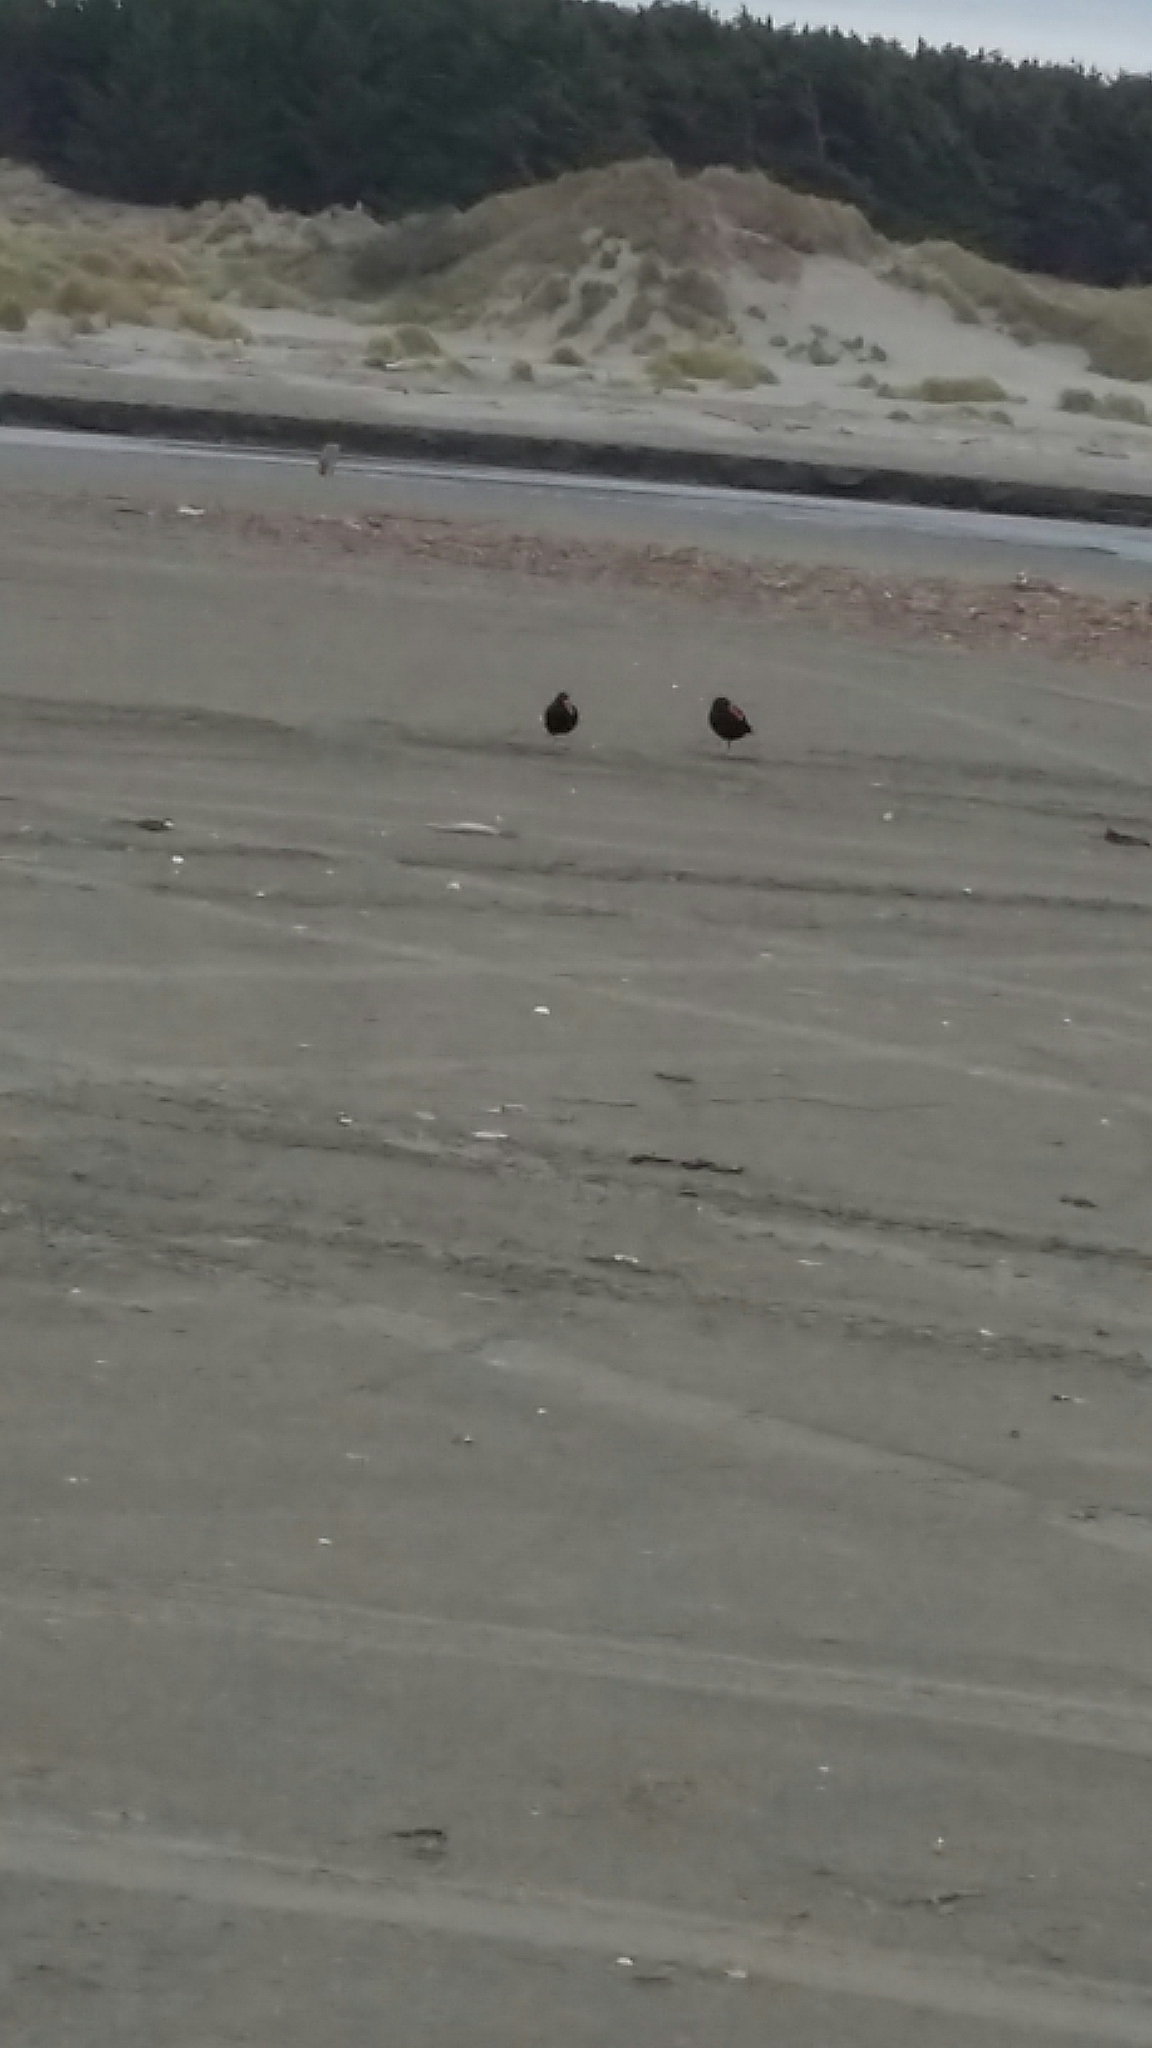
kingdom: Animalia
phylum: Chordata
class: Aves
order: Charadriiformes
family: Haematopodidae
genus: Haematopus
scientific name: Haematopus unicolor
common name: Variable oystercatcher
